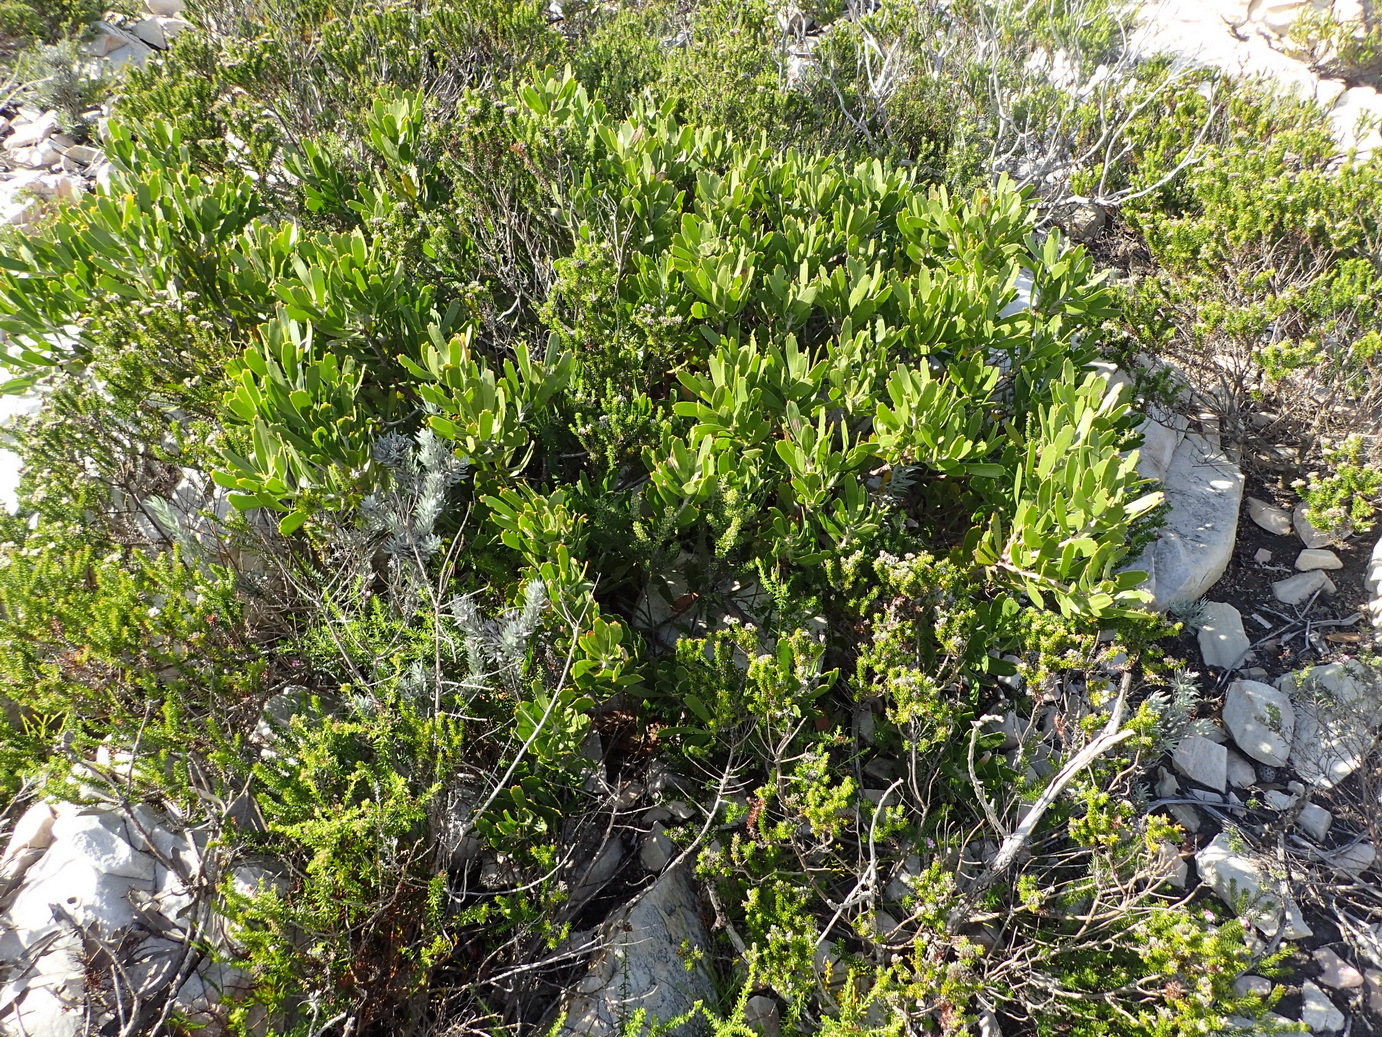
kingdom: Plantae
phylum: Tracheophyta
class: Magnoliopsida
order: Proteales
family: Proteaceae
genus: Leucospermum
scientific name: Leucospermum cuneiforme
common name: Common pincushion
